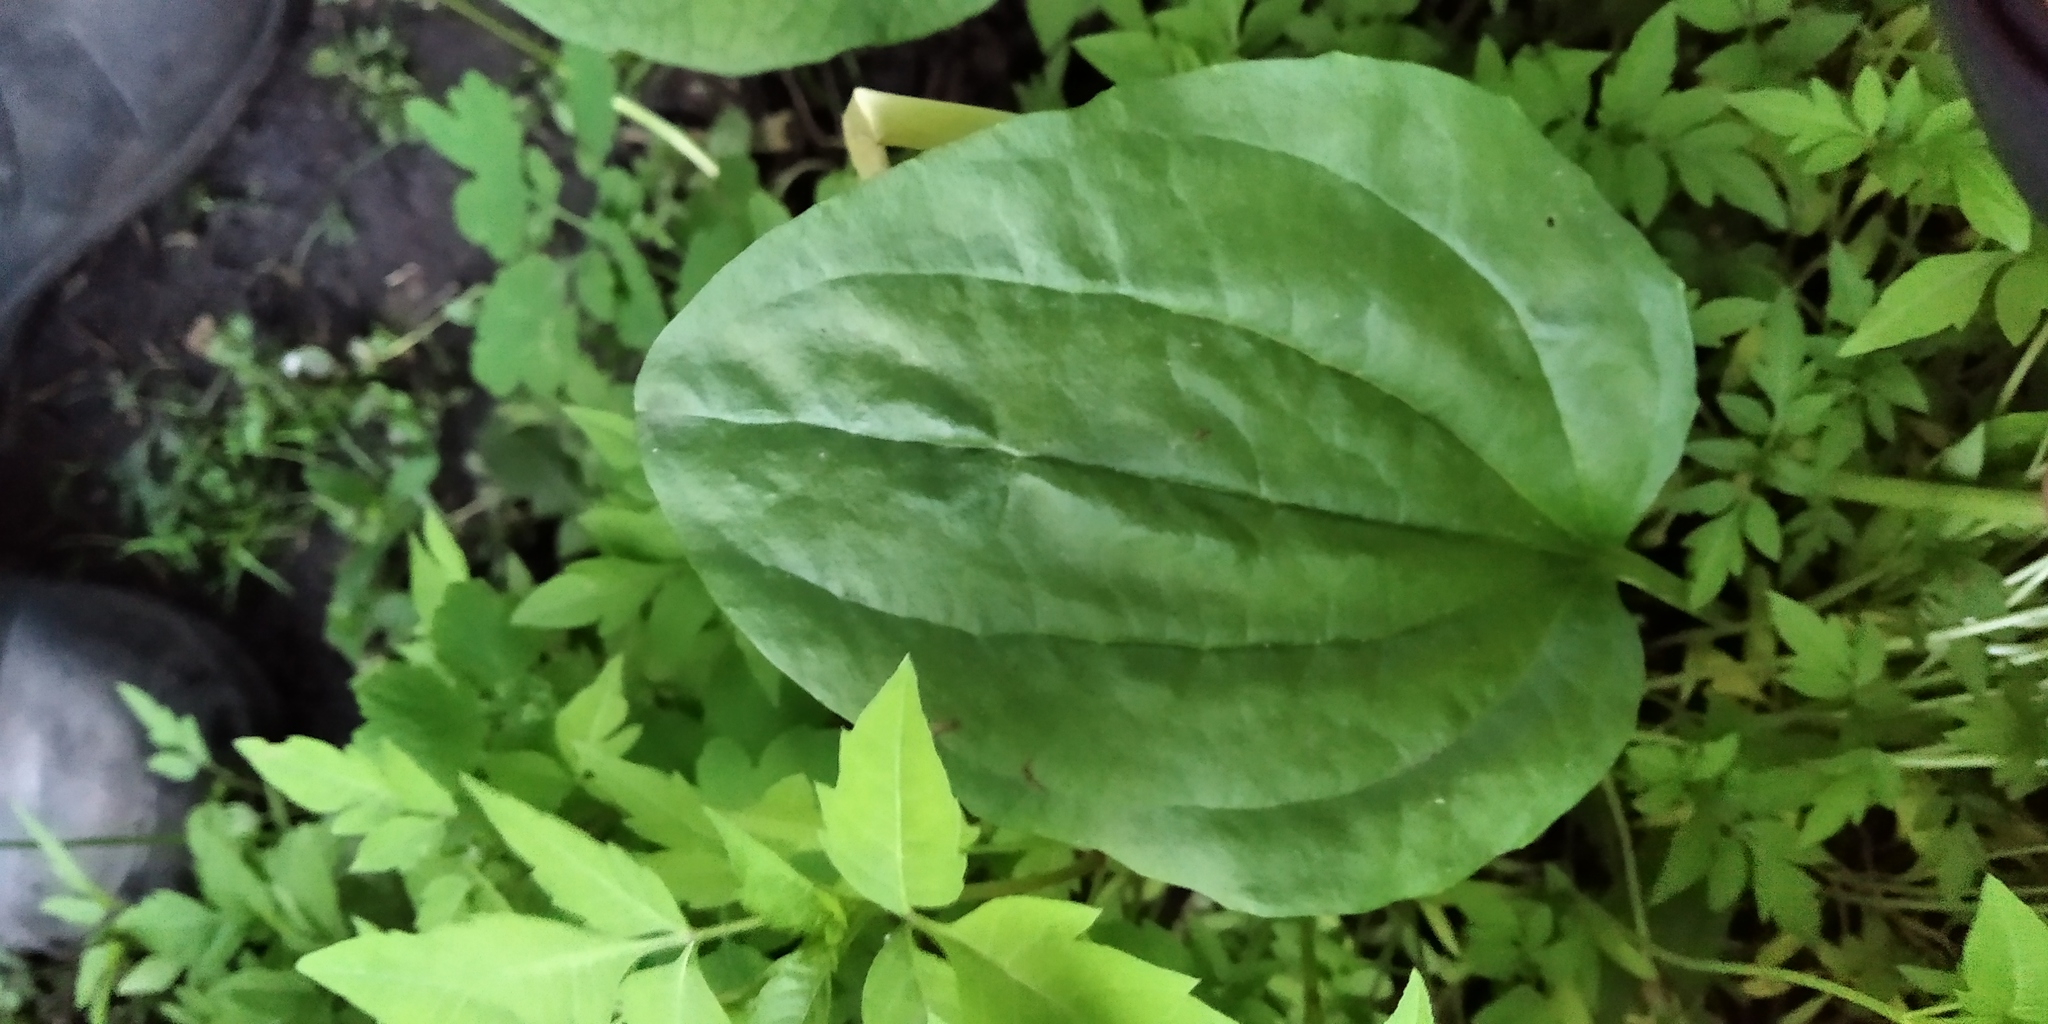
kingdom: Plantae
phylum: Tracheophyta
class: Magnoliopsida
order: Lamiales
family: Plantaginaceae
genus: Plantago
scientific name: Plantago major
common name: Common plantain
